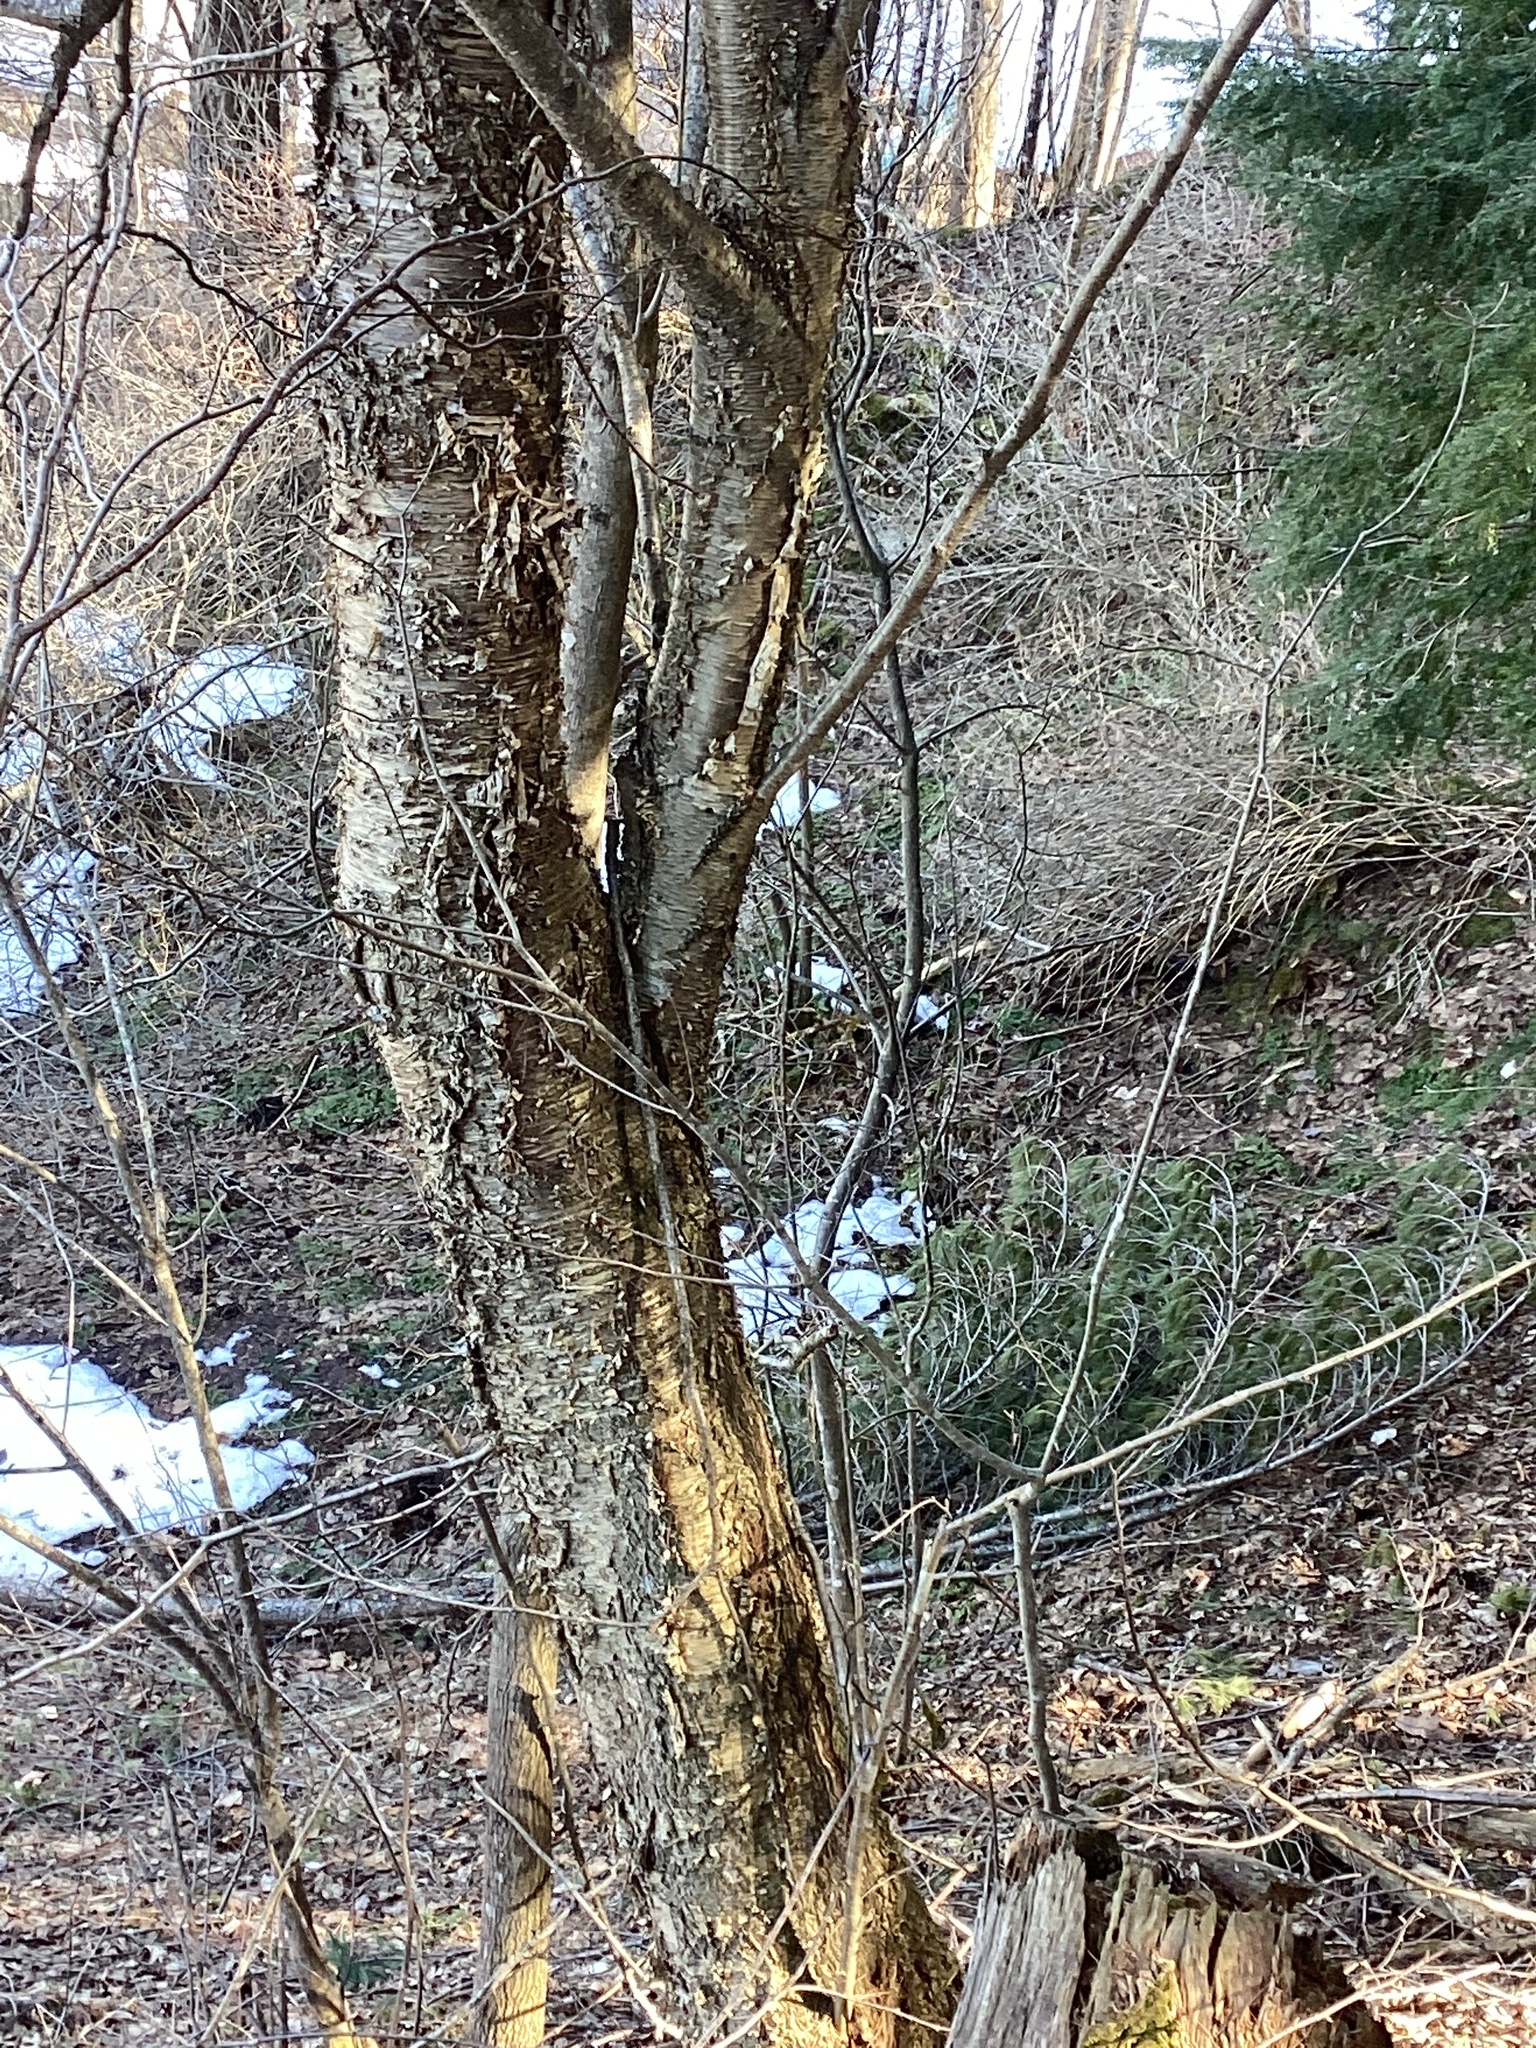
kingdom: Plantae
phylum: Tracheophyta
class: Magnoliopsida
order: Fagales
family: Betulaceae
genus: Betula
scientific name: Betula alleghaniensis
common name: Yellow birch
